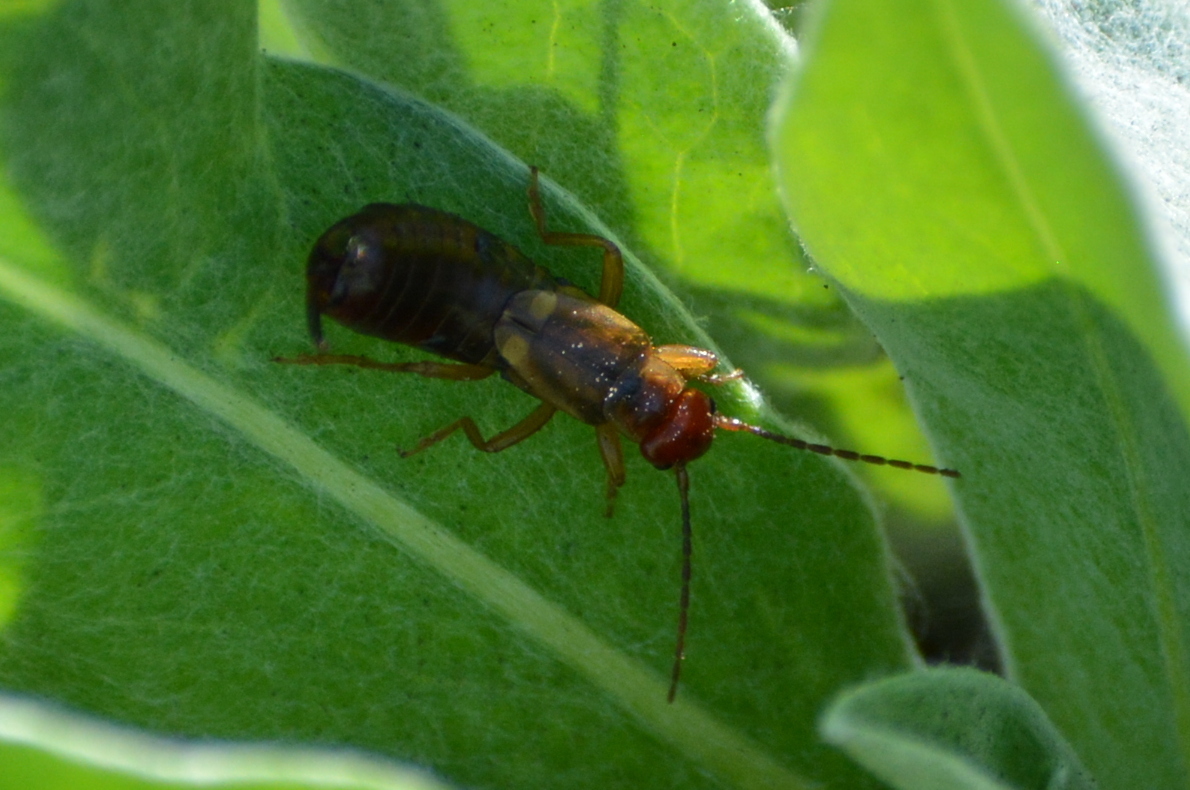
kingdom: Animalia
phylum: Arthropoda
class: Insecta
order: Dermaptera
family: Forficulidae
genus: Forficula
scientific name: Forficula
